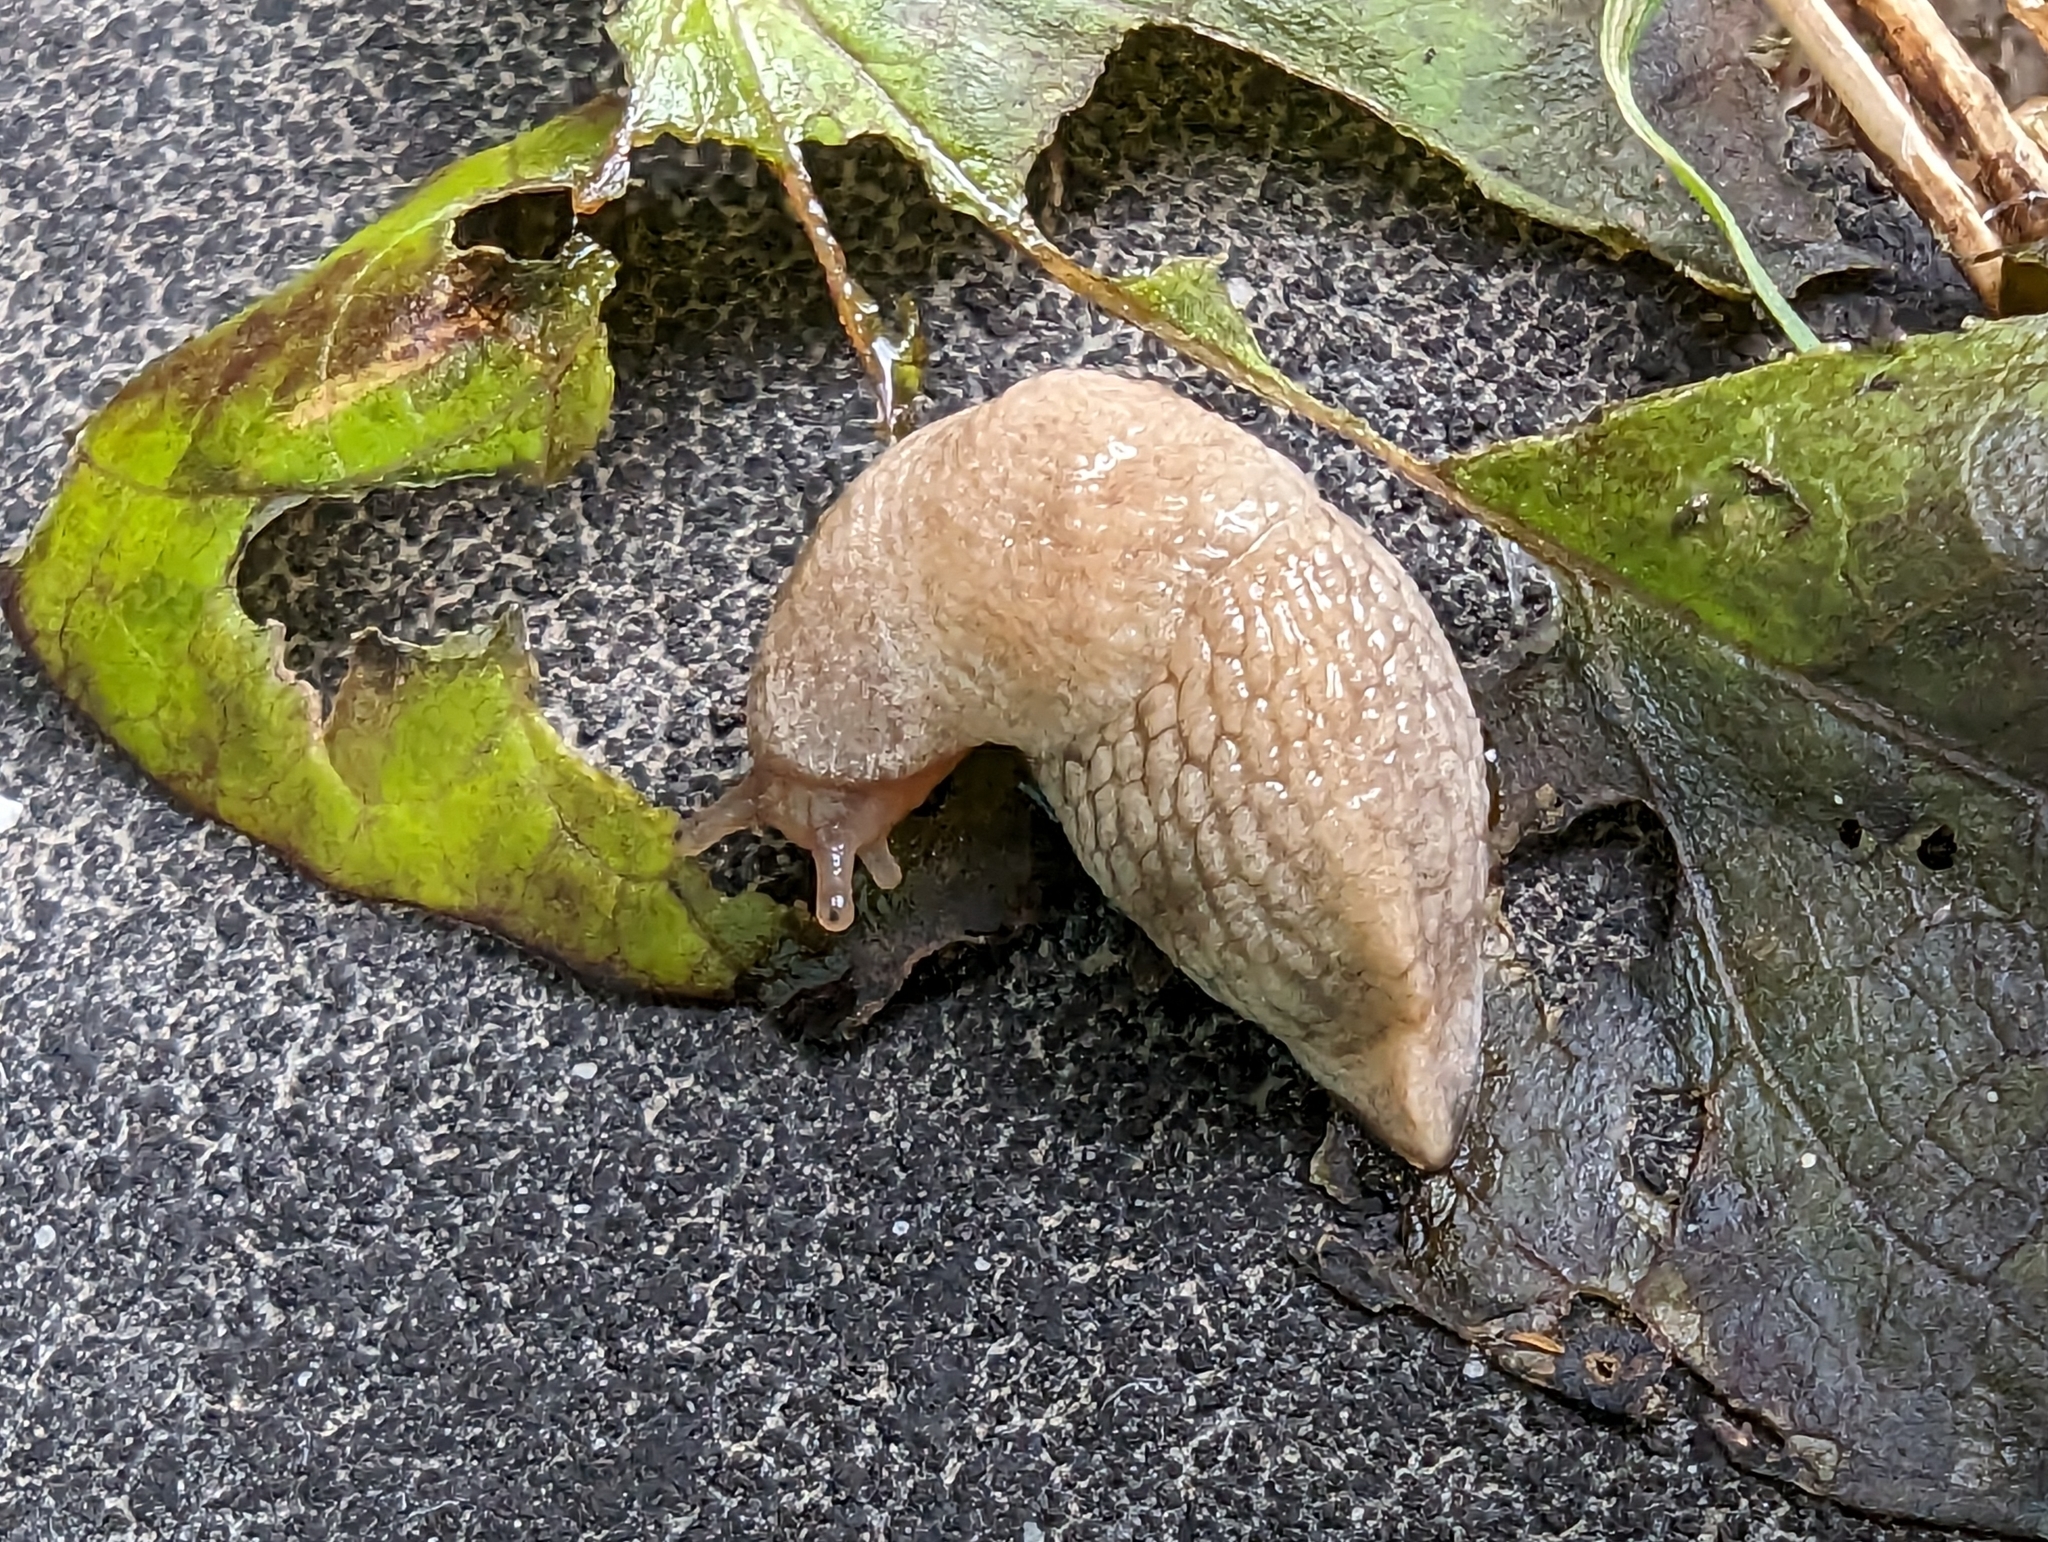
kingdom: Animalia
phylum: Mollusca
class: Gastropoda
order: Stylommatophora
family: Agriolimacidae
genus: Deroceras
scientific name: Deroceras reticulatum
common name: Gray field slug
